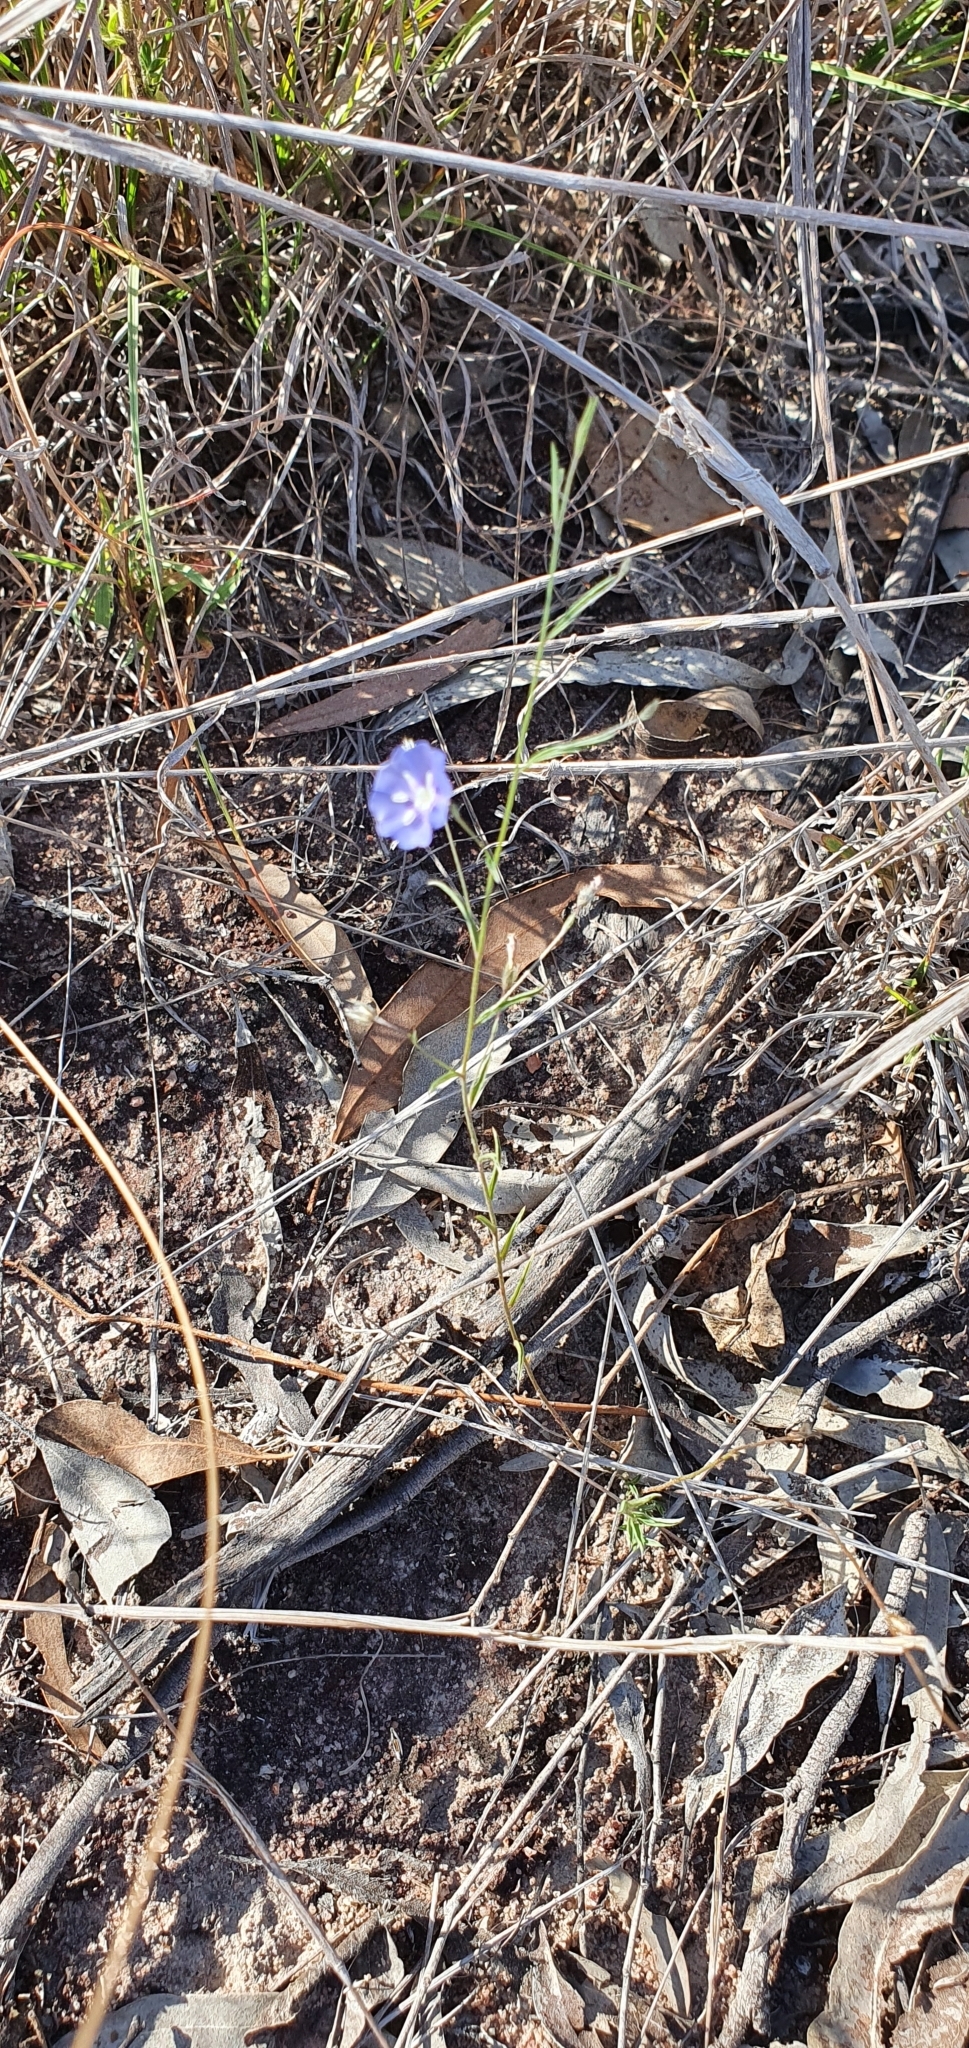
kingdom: Plantae
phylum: Tracheophyta
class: Magnoliopsida
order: Solanales
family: Convolvulaceae
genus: Evolvulus
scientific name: Evolvulus alsinoides
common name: Slender dwarf morning-glory
